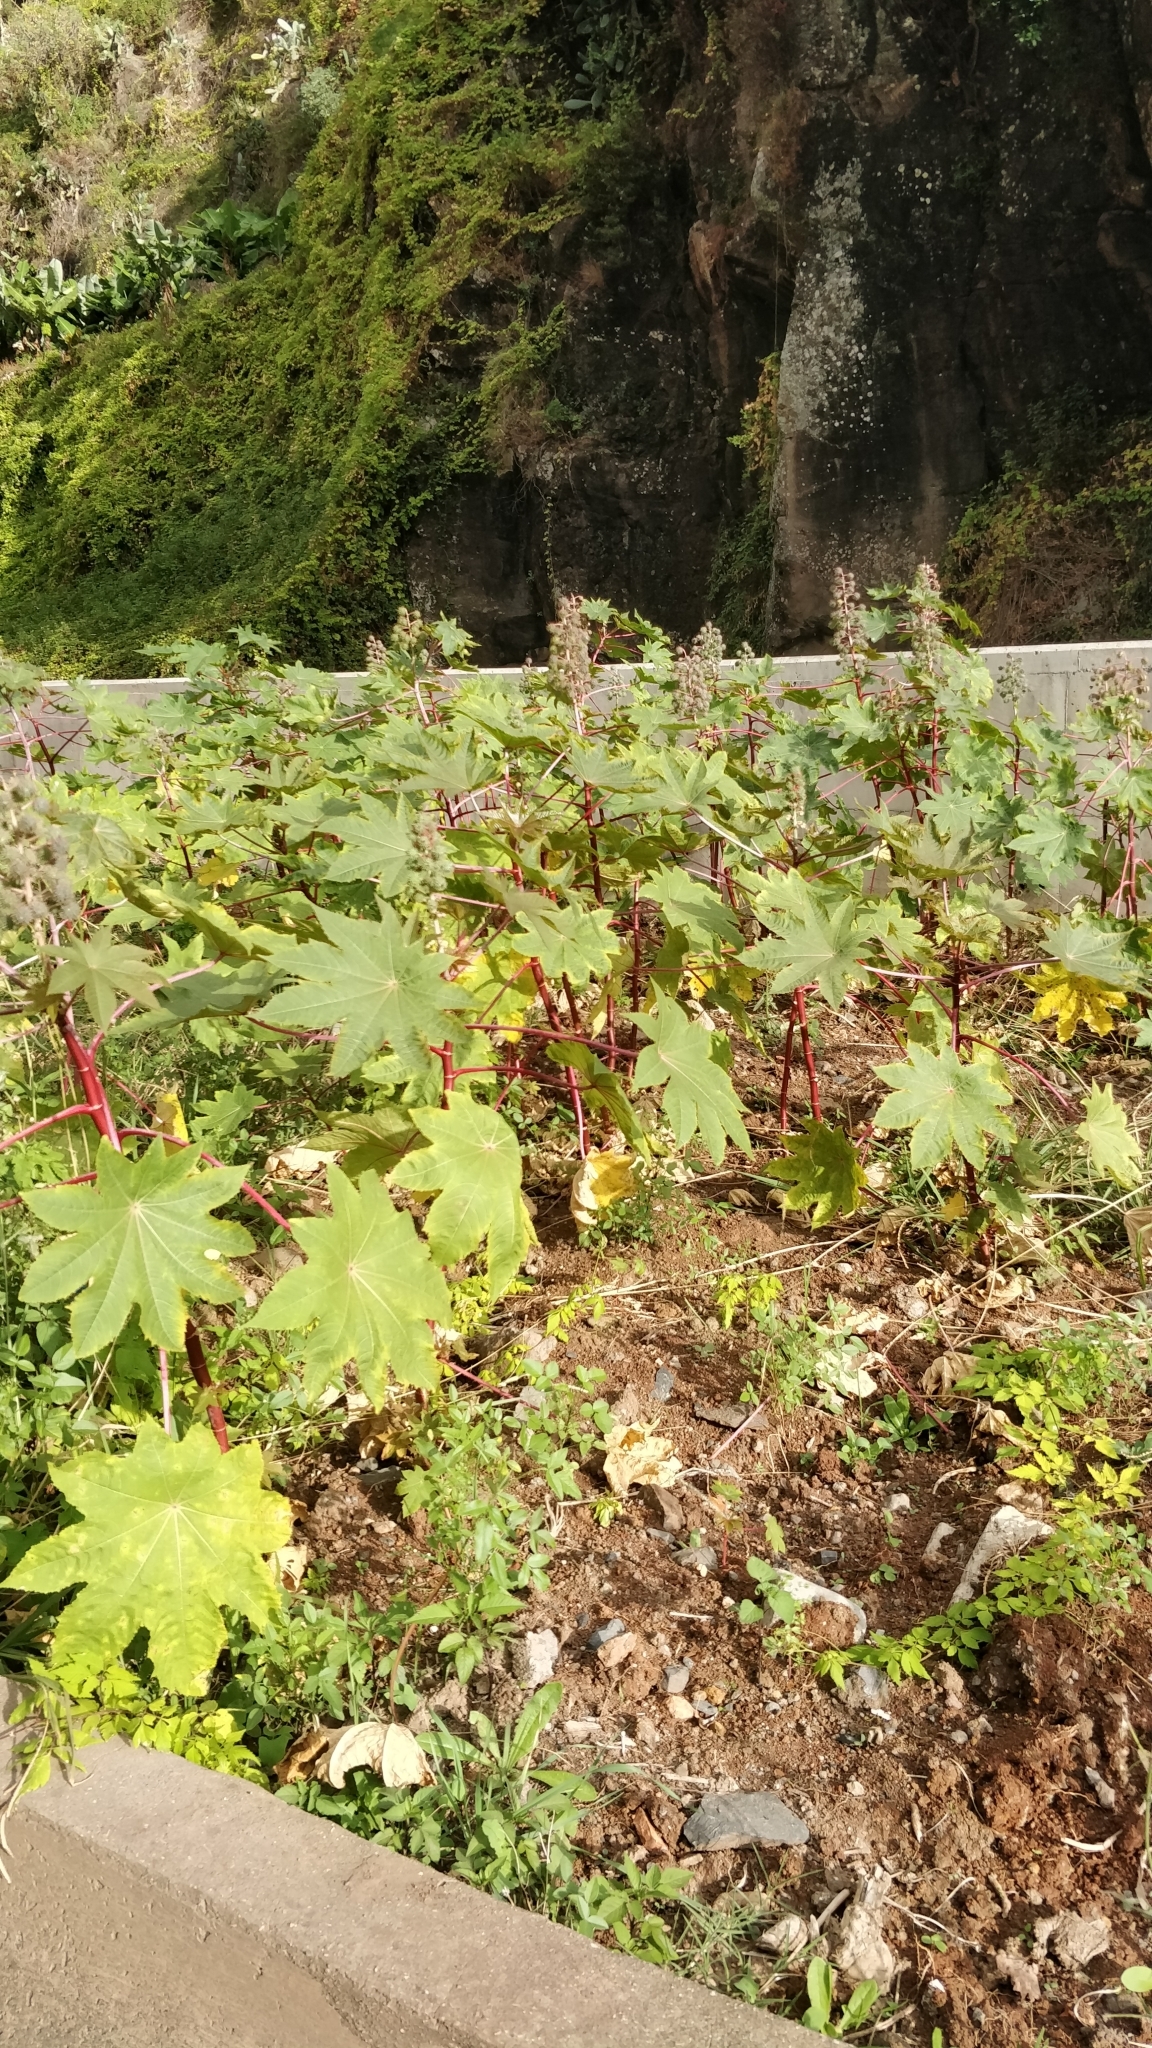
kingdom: Plantae
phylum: Tracheophyta
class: Magnoliopsida
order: Malpighiales
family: Euphorbiaceae
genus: Ricinus
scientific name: Ricinus communis
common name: Castor-oil-plant
